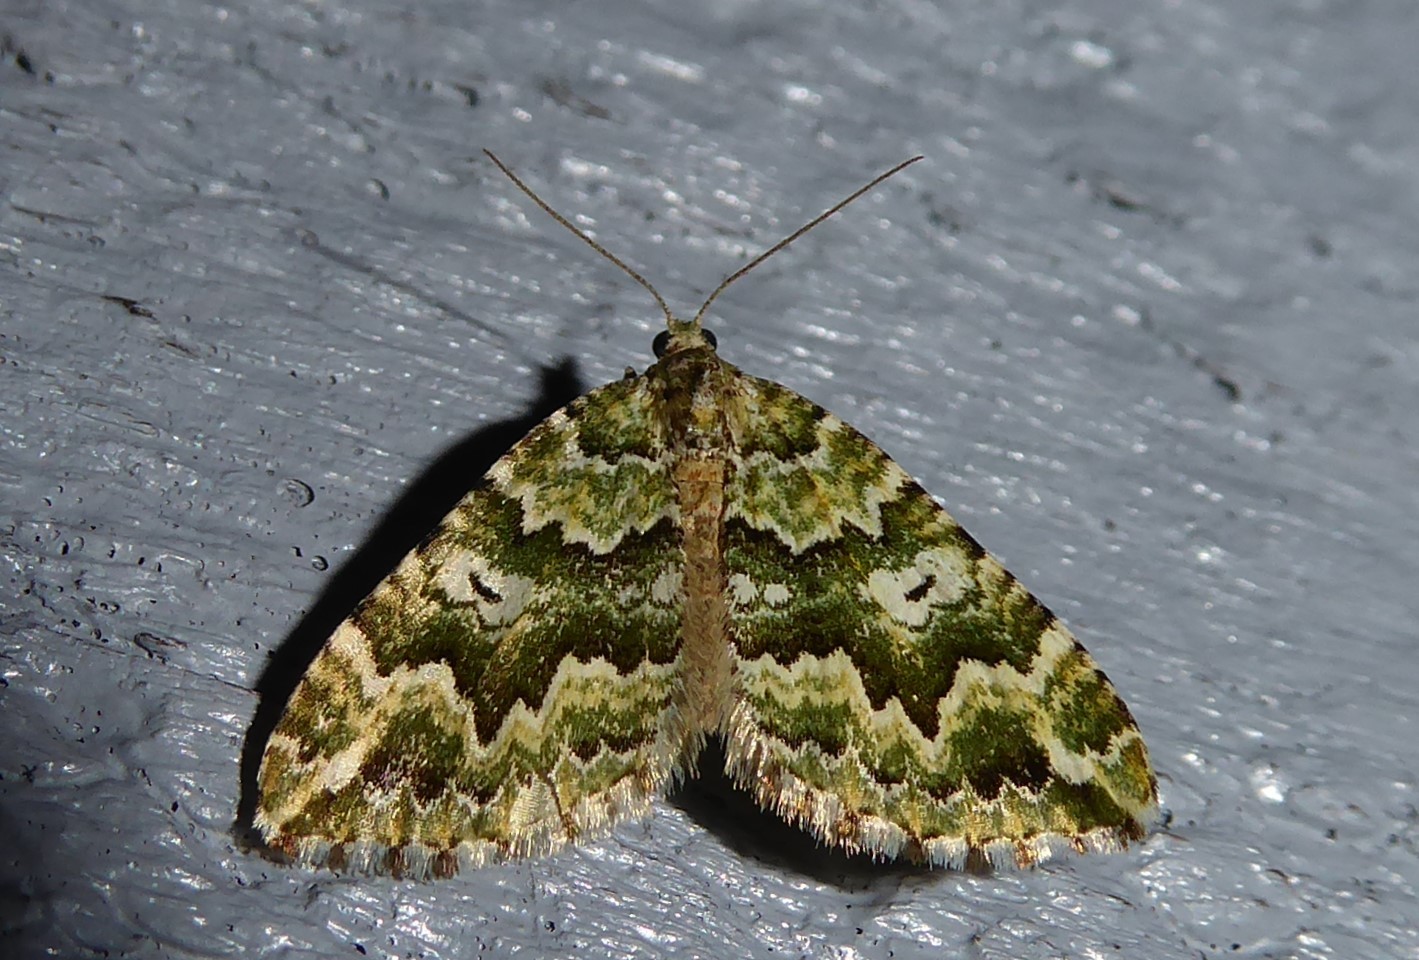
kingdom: Animalia
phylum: Arthropoda
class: Insecta
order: Lepidoptera
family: Geometridae
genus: Asaphodes
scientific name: Asaphodes beata
